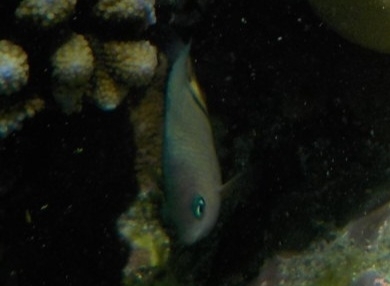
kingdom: Animalia
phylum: Chordata
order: Perciformes
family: Pomacentridae
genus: Plectroglyphidodon
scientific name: Plectroglyphidodon dickii
